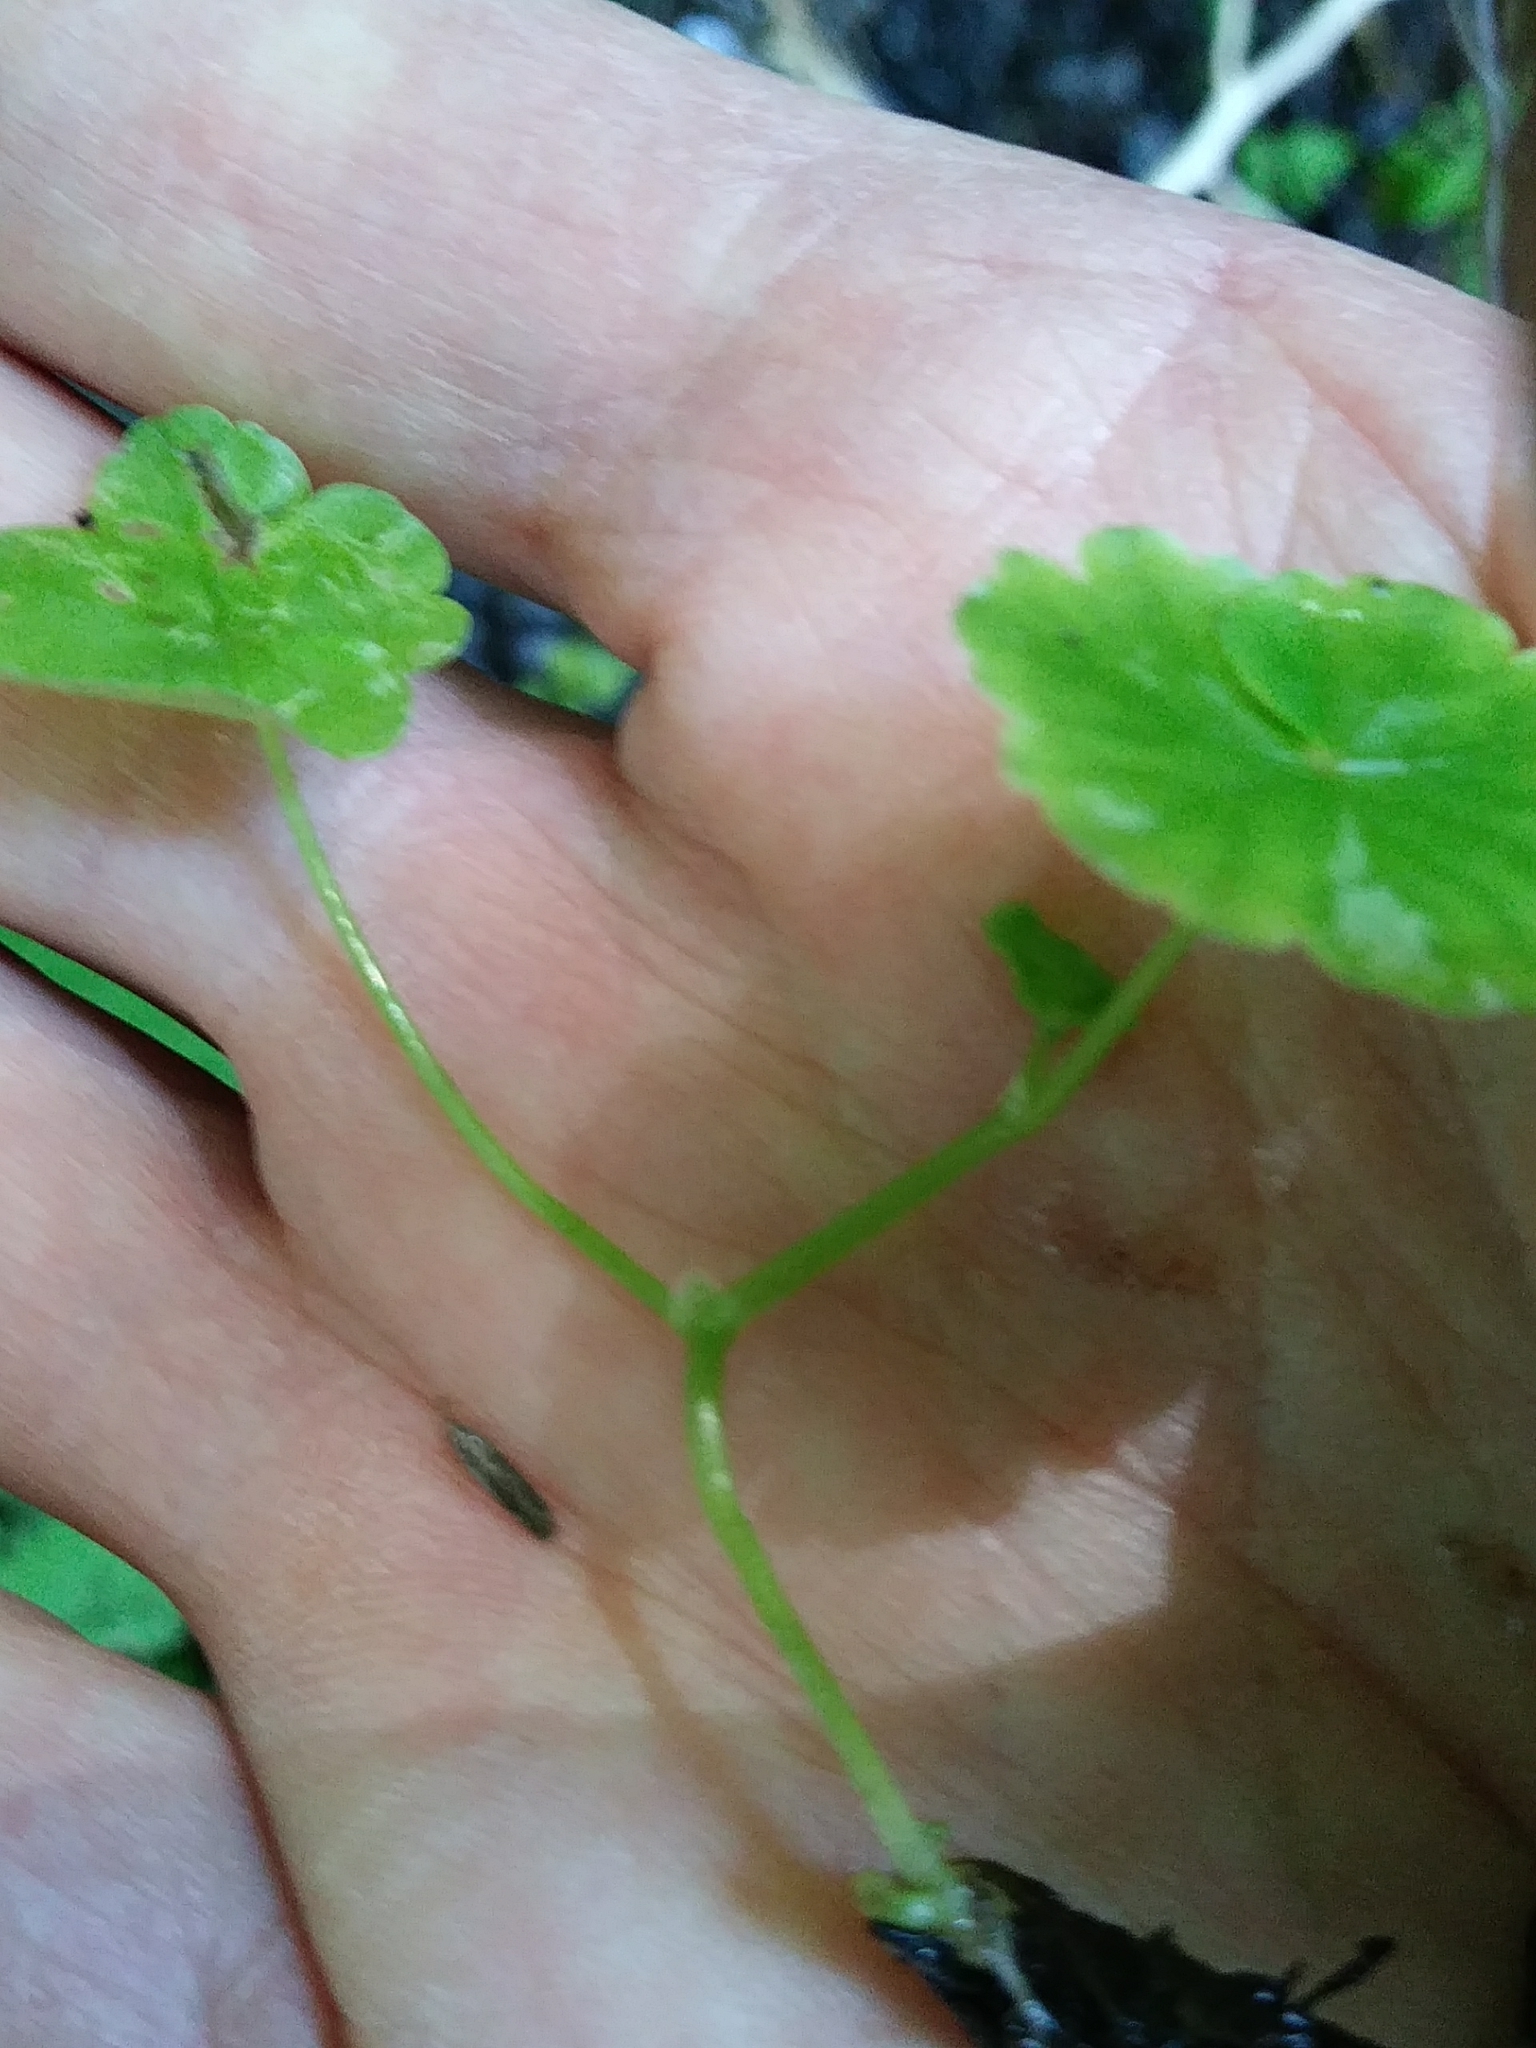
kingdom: Plantae
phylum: Tracheophyta
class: Magnoliopsida
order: Apiales
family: Araliaceae
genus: Hydrocotyle
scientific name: Hydrocotyle americana
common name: American water-pennywort
